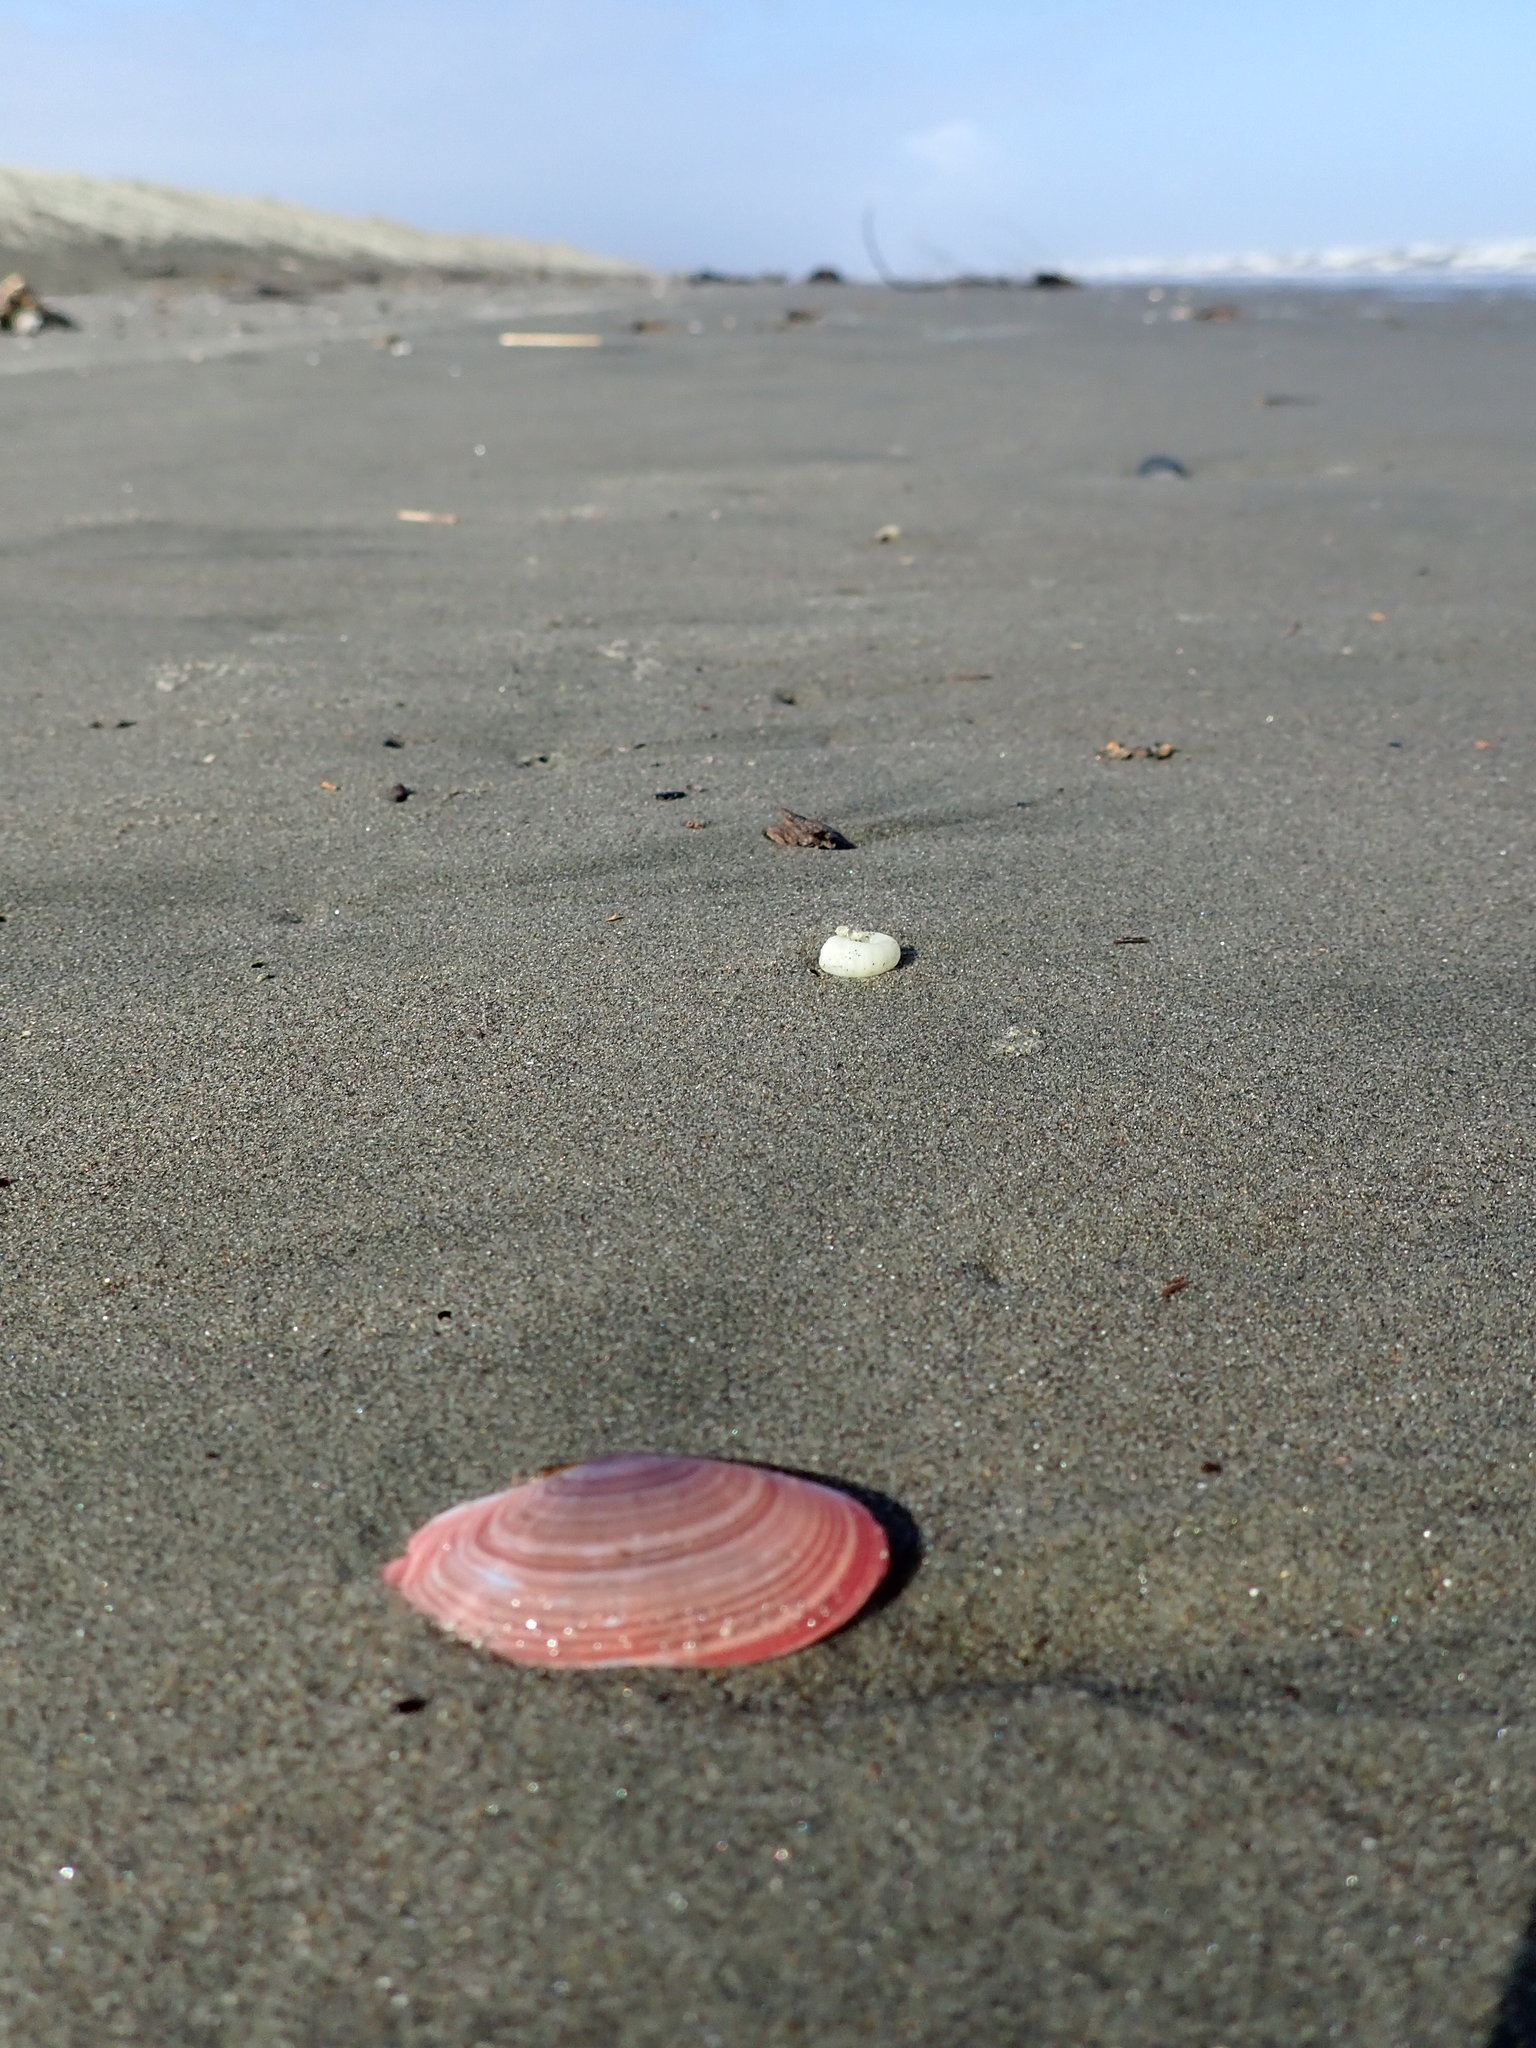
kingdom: Animalia
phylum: Mollusca
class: Bivalvia
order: Cardiida
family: Psammobiidae
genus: Gari
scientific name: Gari lineolata
